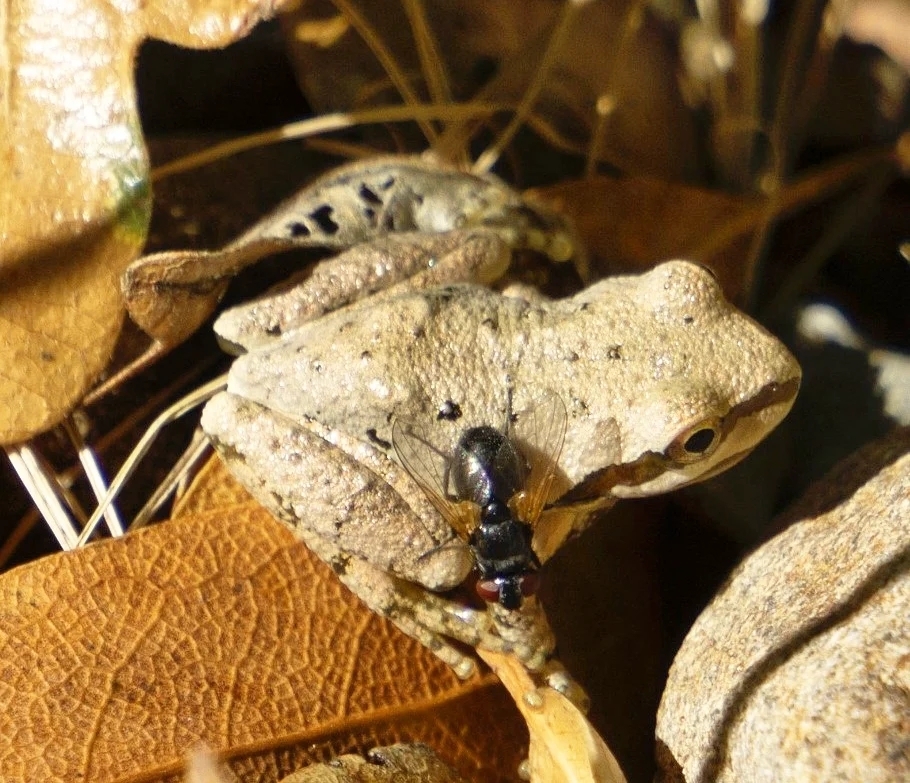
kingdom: Animalia
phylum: Chordata
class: Amphibia
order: Anura
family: Hylidae
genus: Pseudacris
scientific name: Pseudacris regilla
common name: Pacific chorus frog
